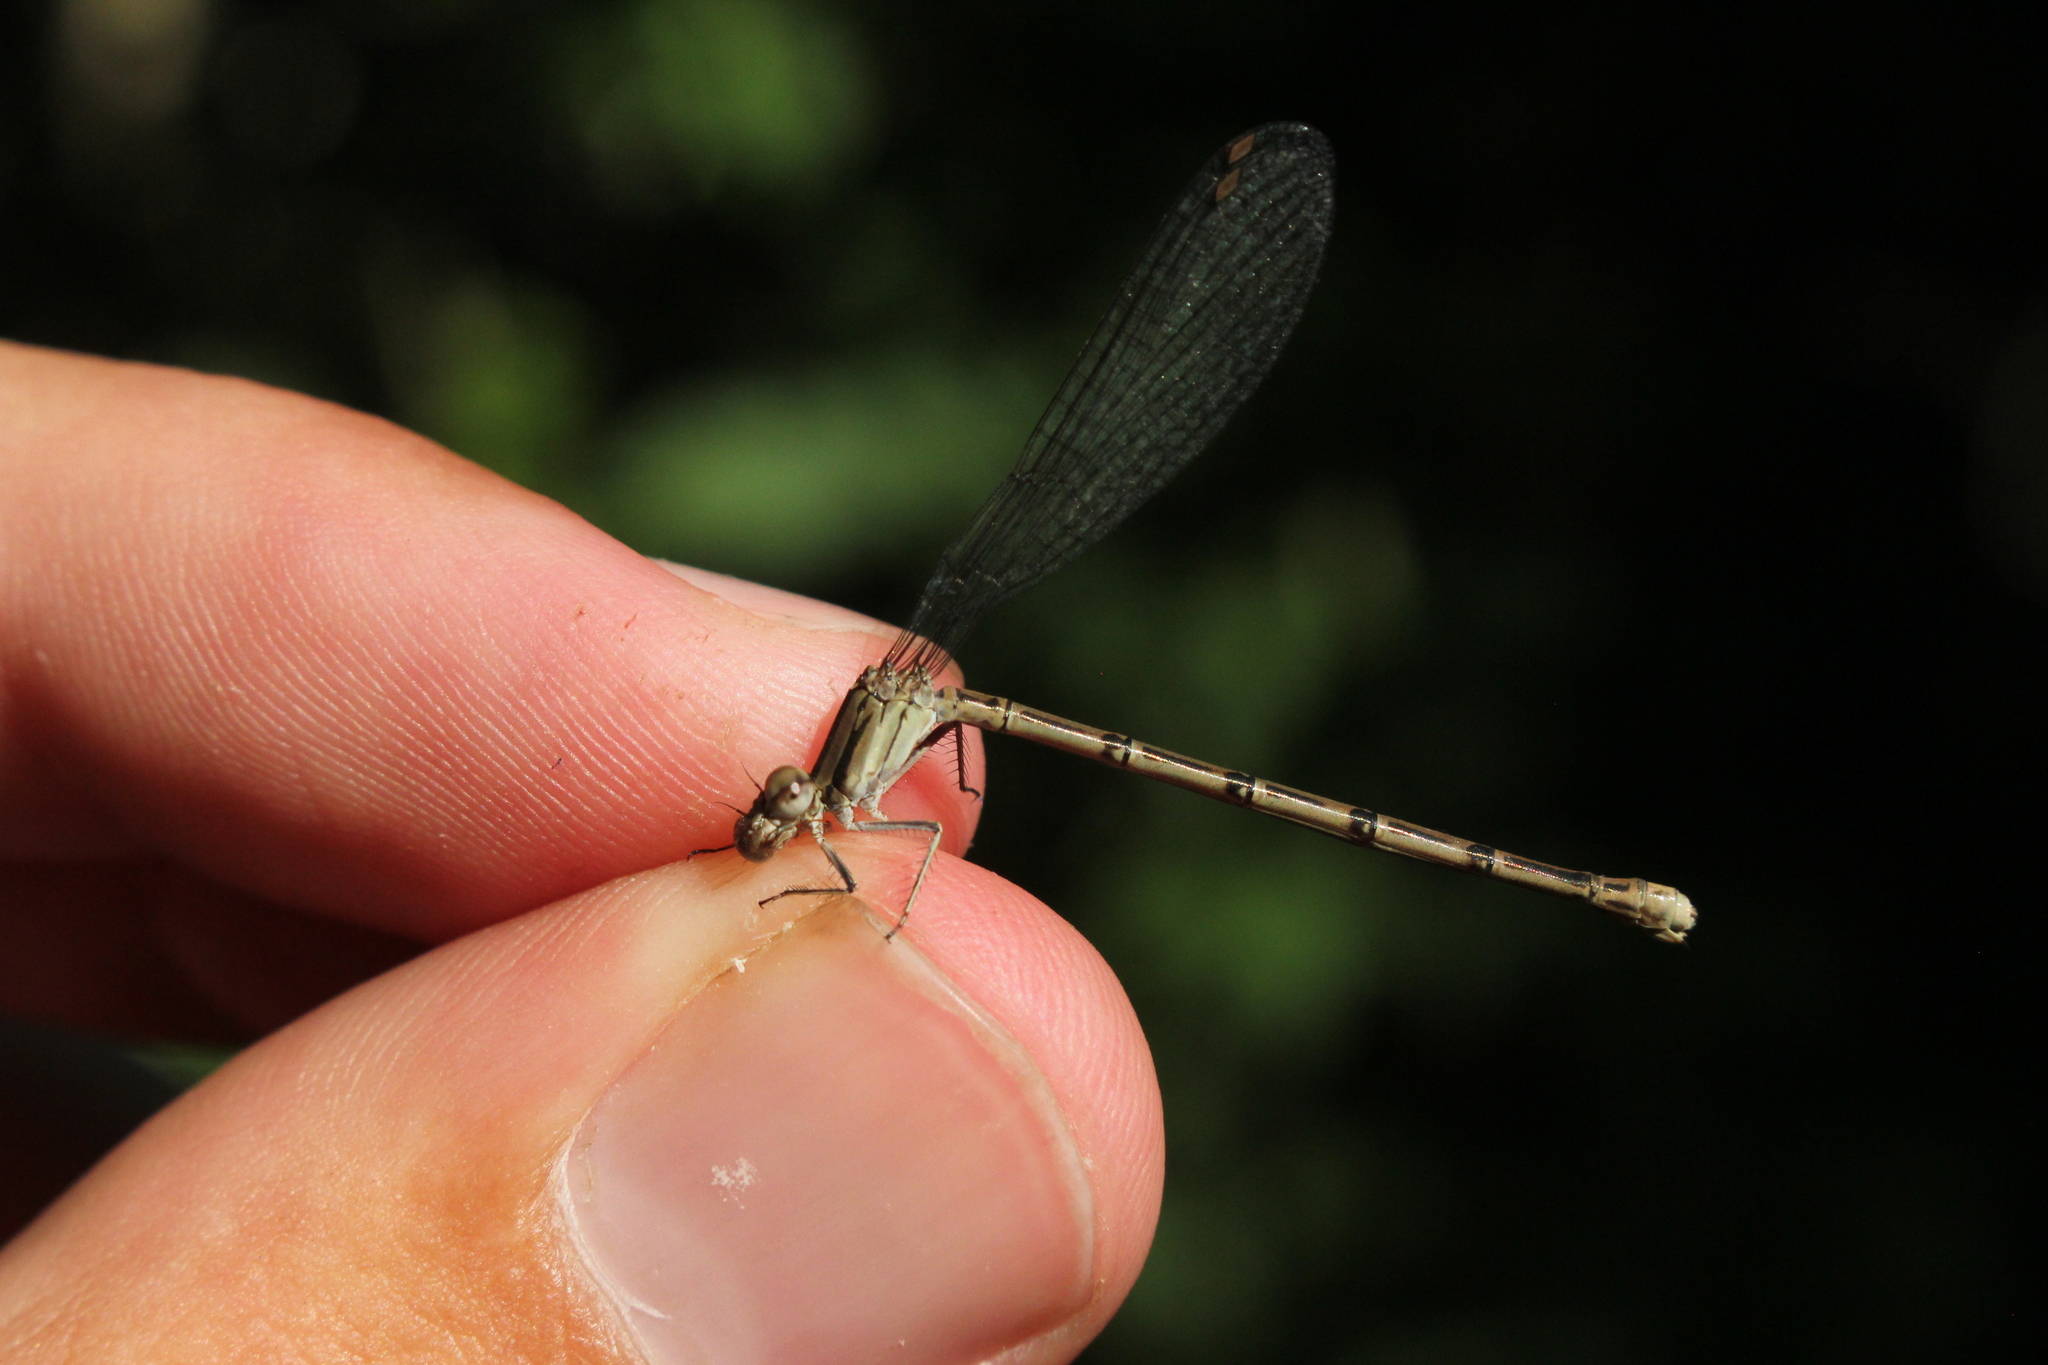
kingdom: Animalia
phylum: Arthropoda
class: Insecta
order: Odonata
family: Coenagrionidae
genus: Argia
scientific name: Argia fumipennis
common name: Variable dancer
